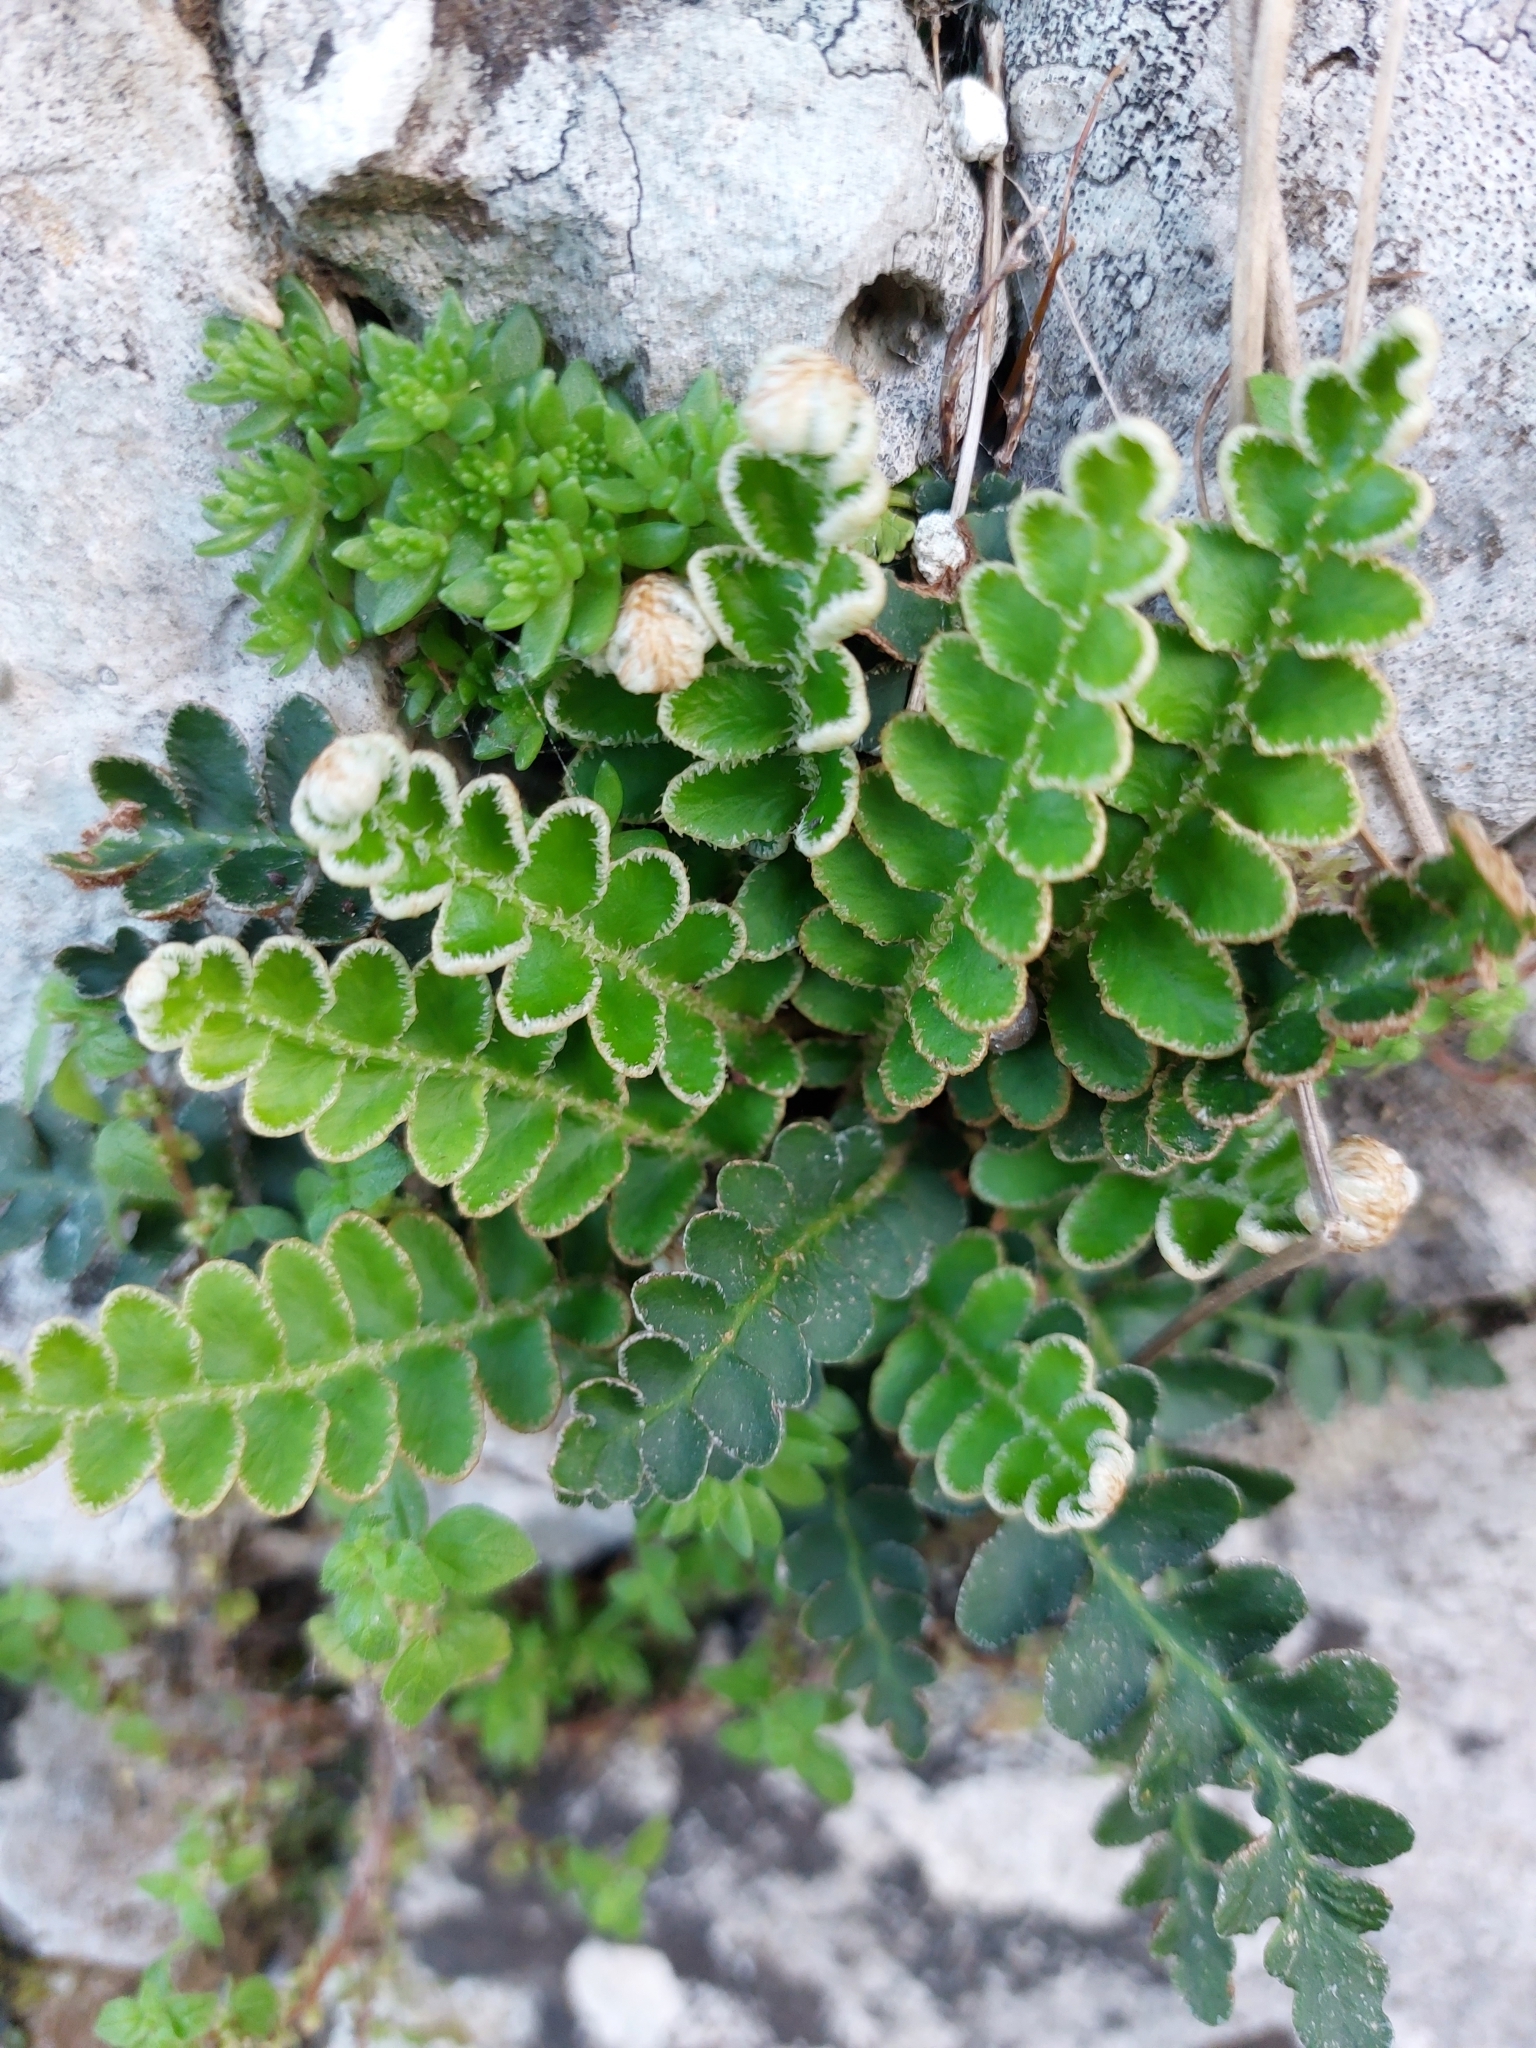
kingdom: Plantae
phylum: Tracheophyta
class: Polypodiopsida
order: Polypodiales
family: Aspleniaceae
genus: Asplenium
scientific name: Asplenium ceterach
